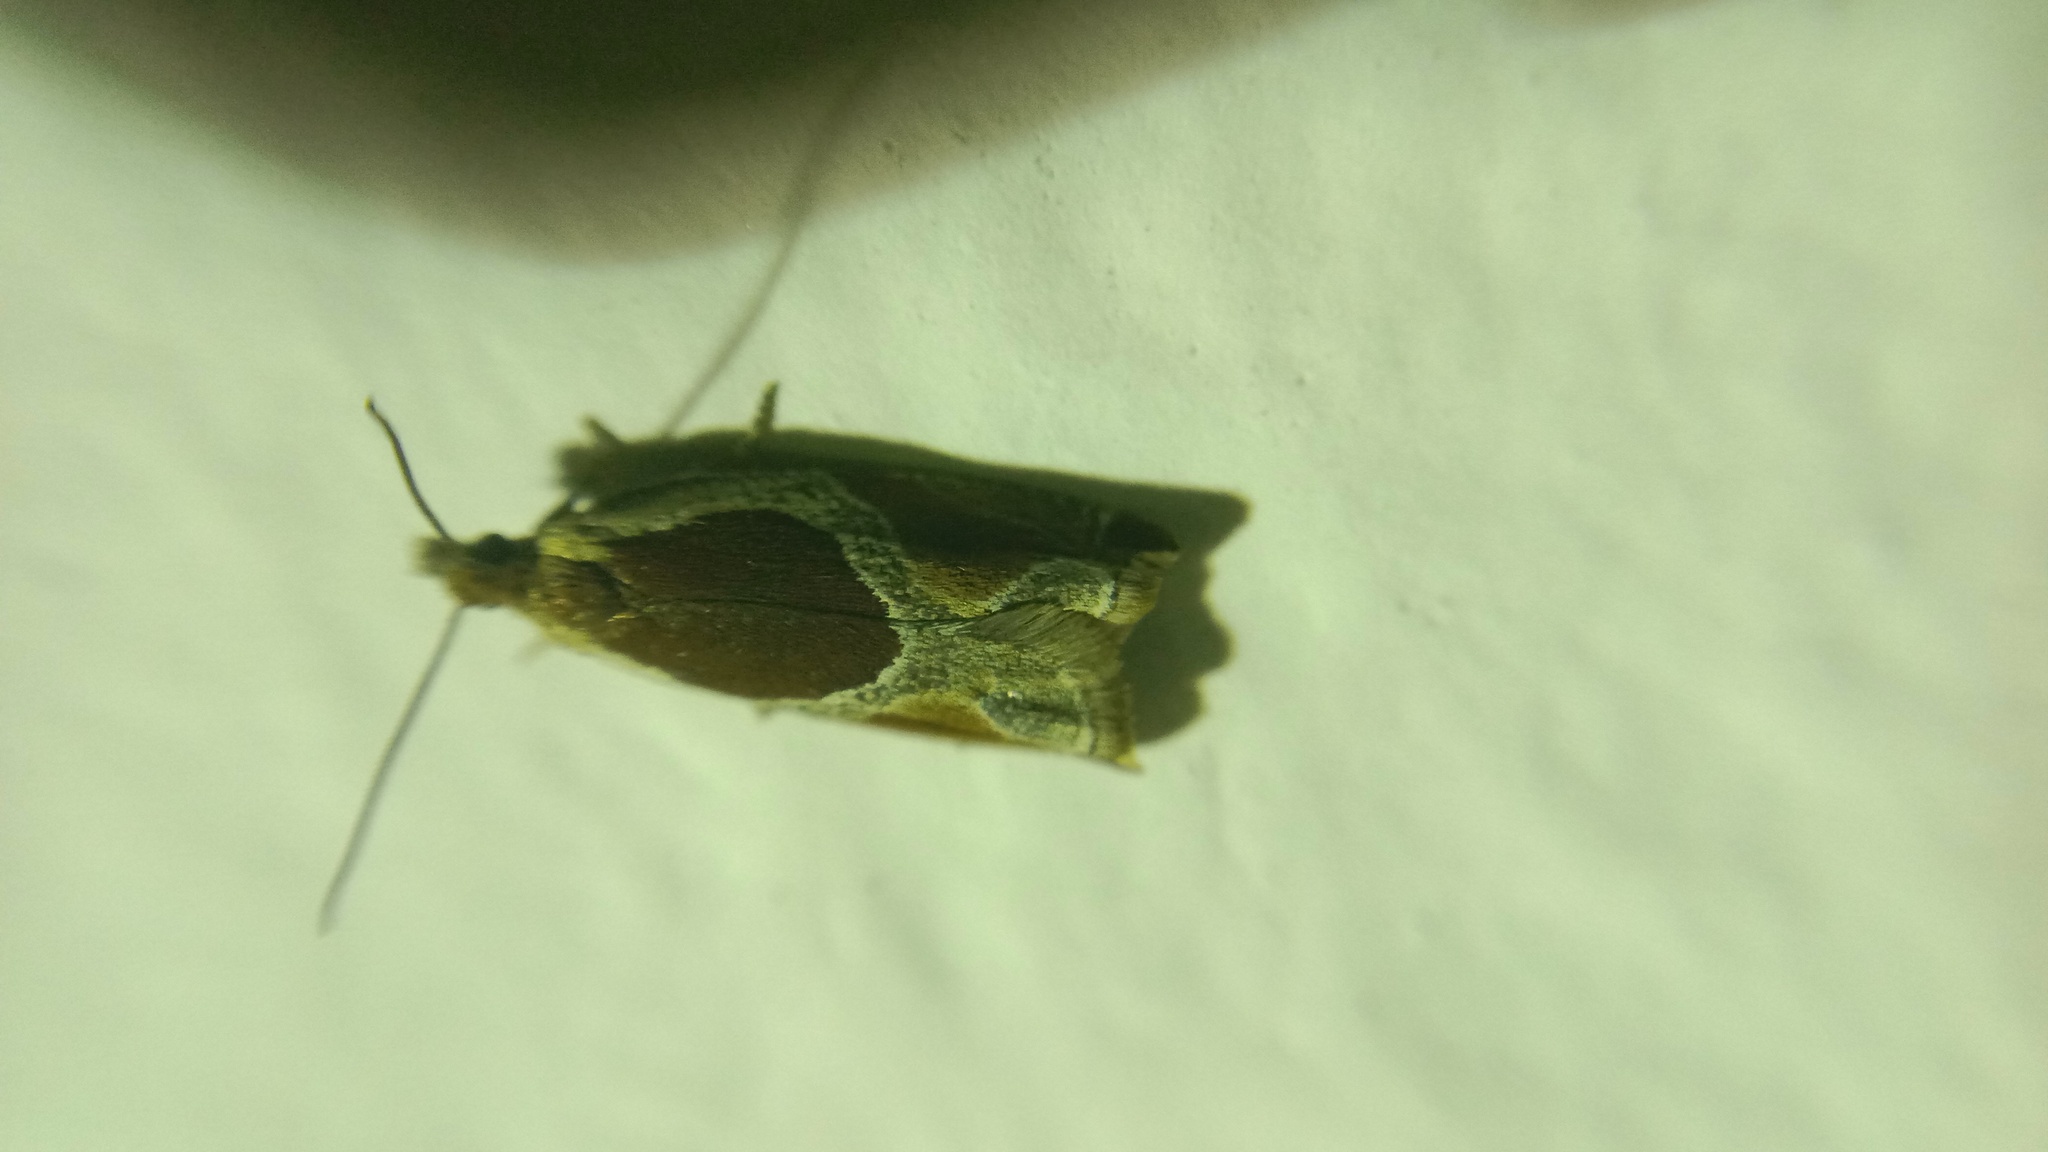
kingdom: Animalia
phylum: Arthropoda
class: Insecta
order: Lepidoptera
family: Tortricidae
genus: Ancylis
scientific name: Ancylis unculana
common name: Buckthorn roller
